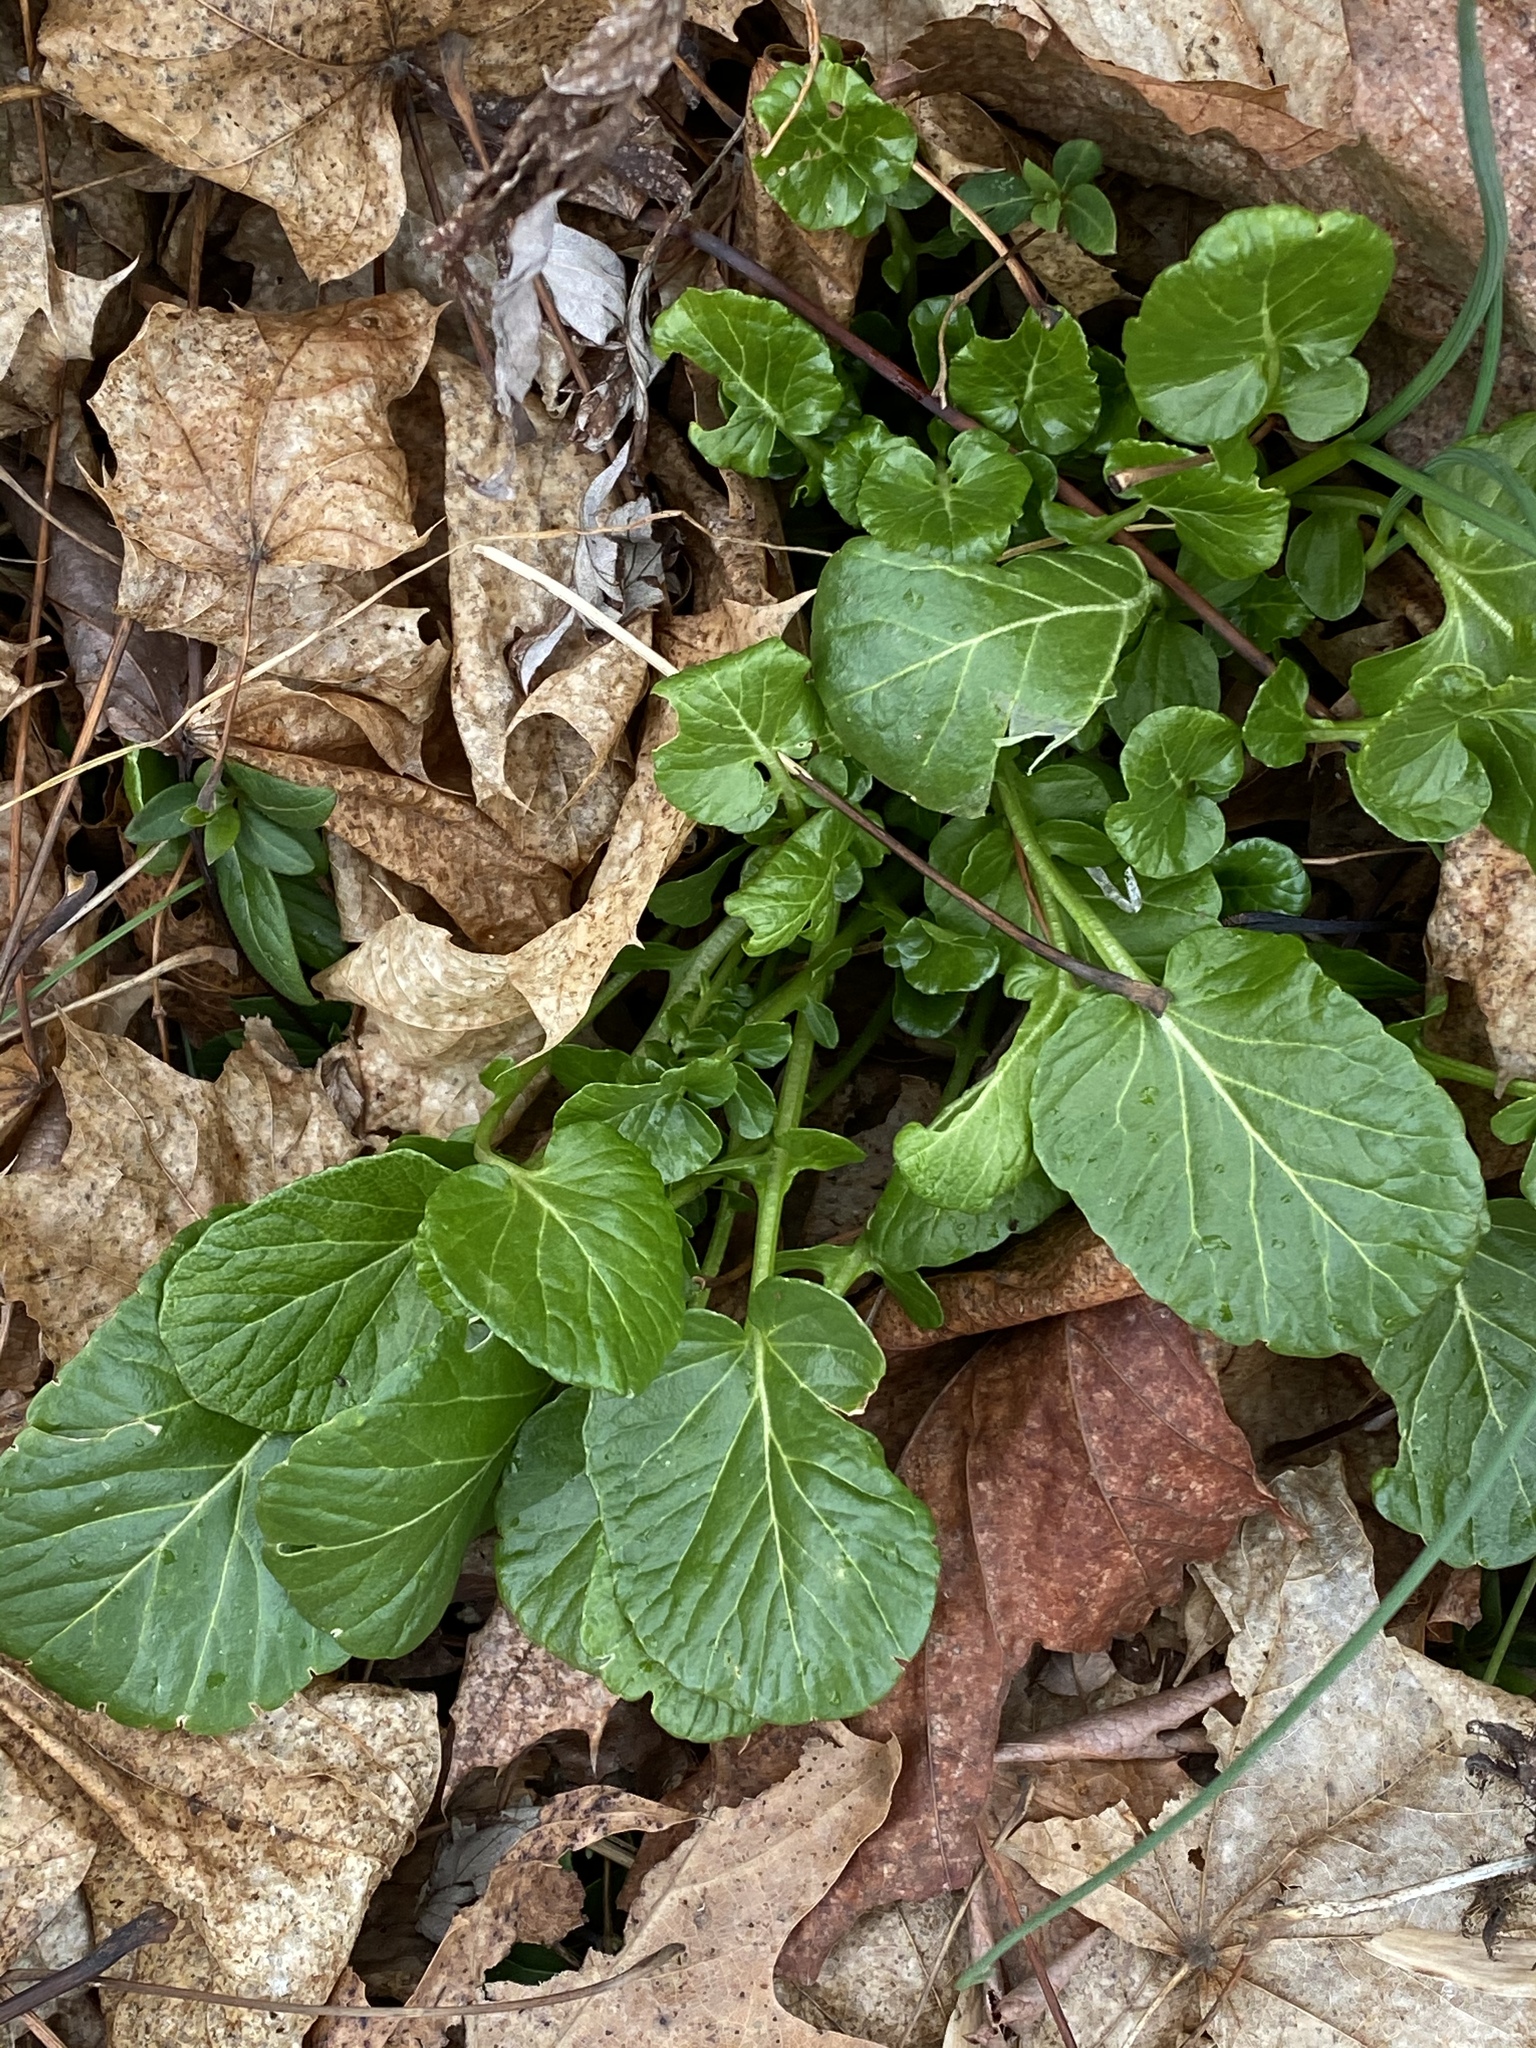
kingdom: Plantae
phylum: Tracheophyta
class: Magnoliopsida
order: Brassicales
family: Brassicaceae
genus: Barbarea
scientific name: Barbarea vulgaris
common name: Cressy-greens
